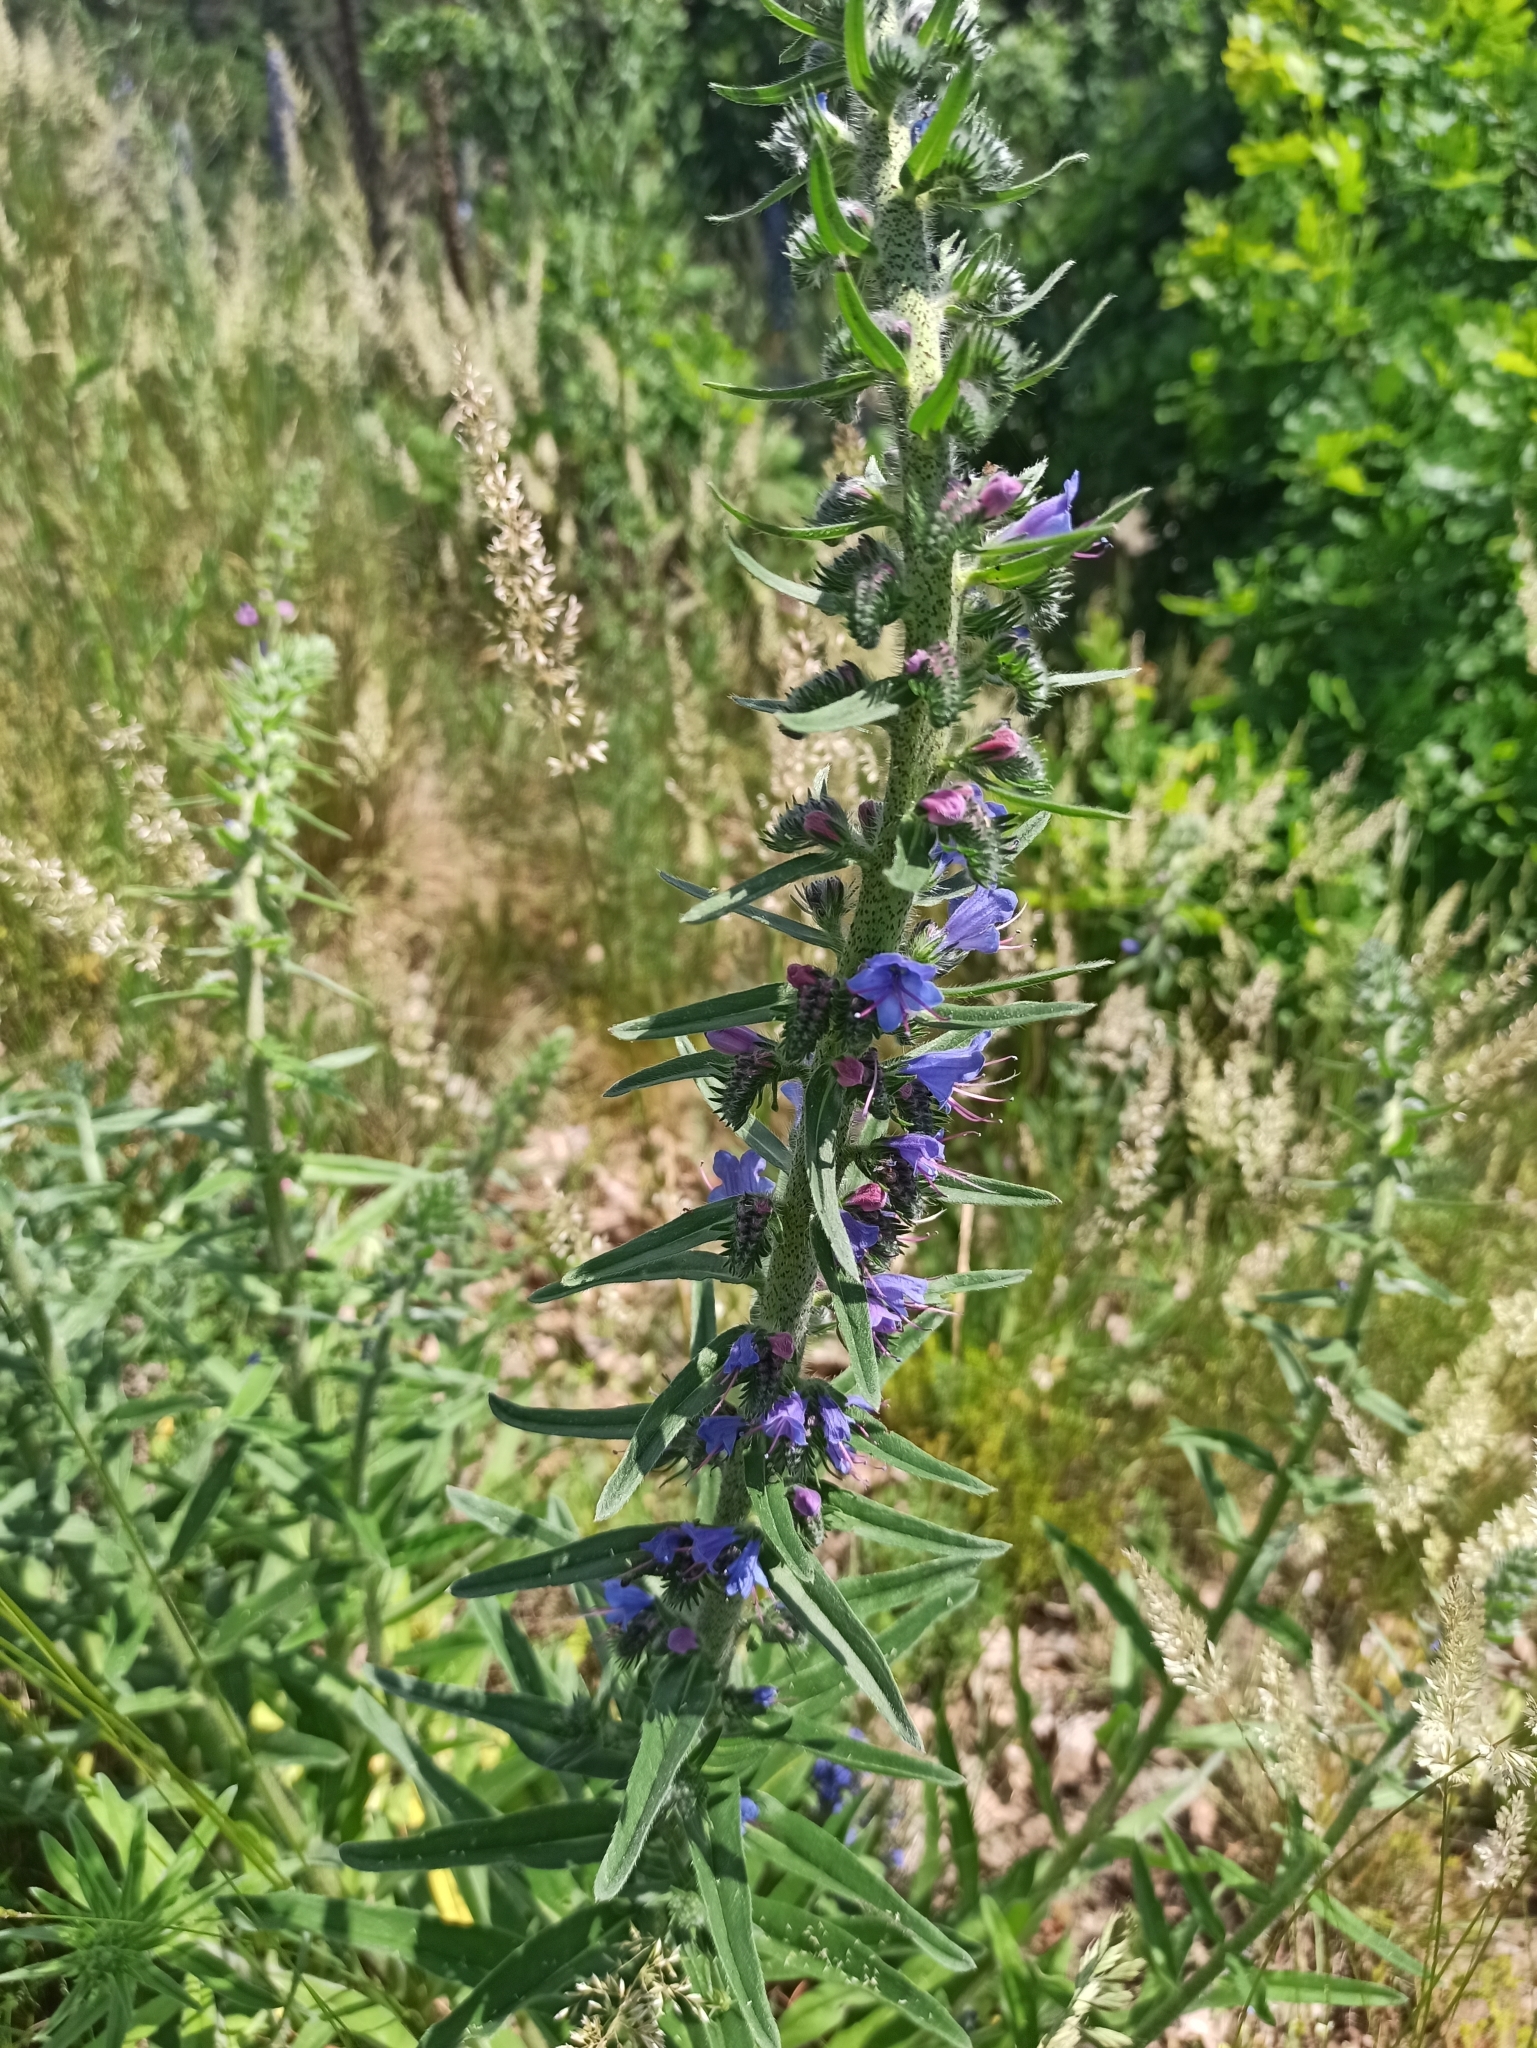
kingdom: Plantae
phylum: Tracheophyta
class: Magnoliopsida
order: Boraginales
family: Boraginaceae
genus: Echium
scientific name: Echium vulgare
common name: Common viper's bugloss
